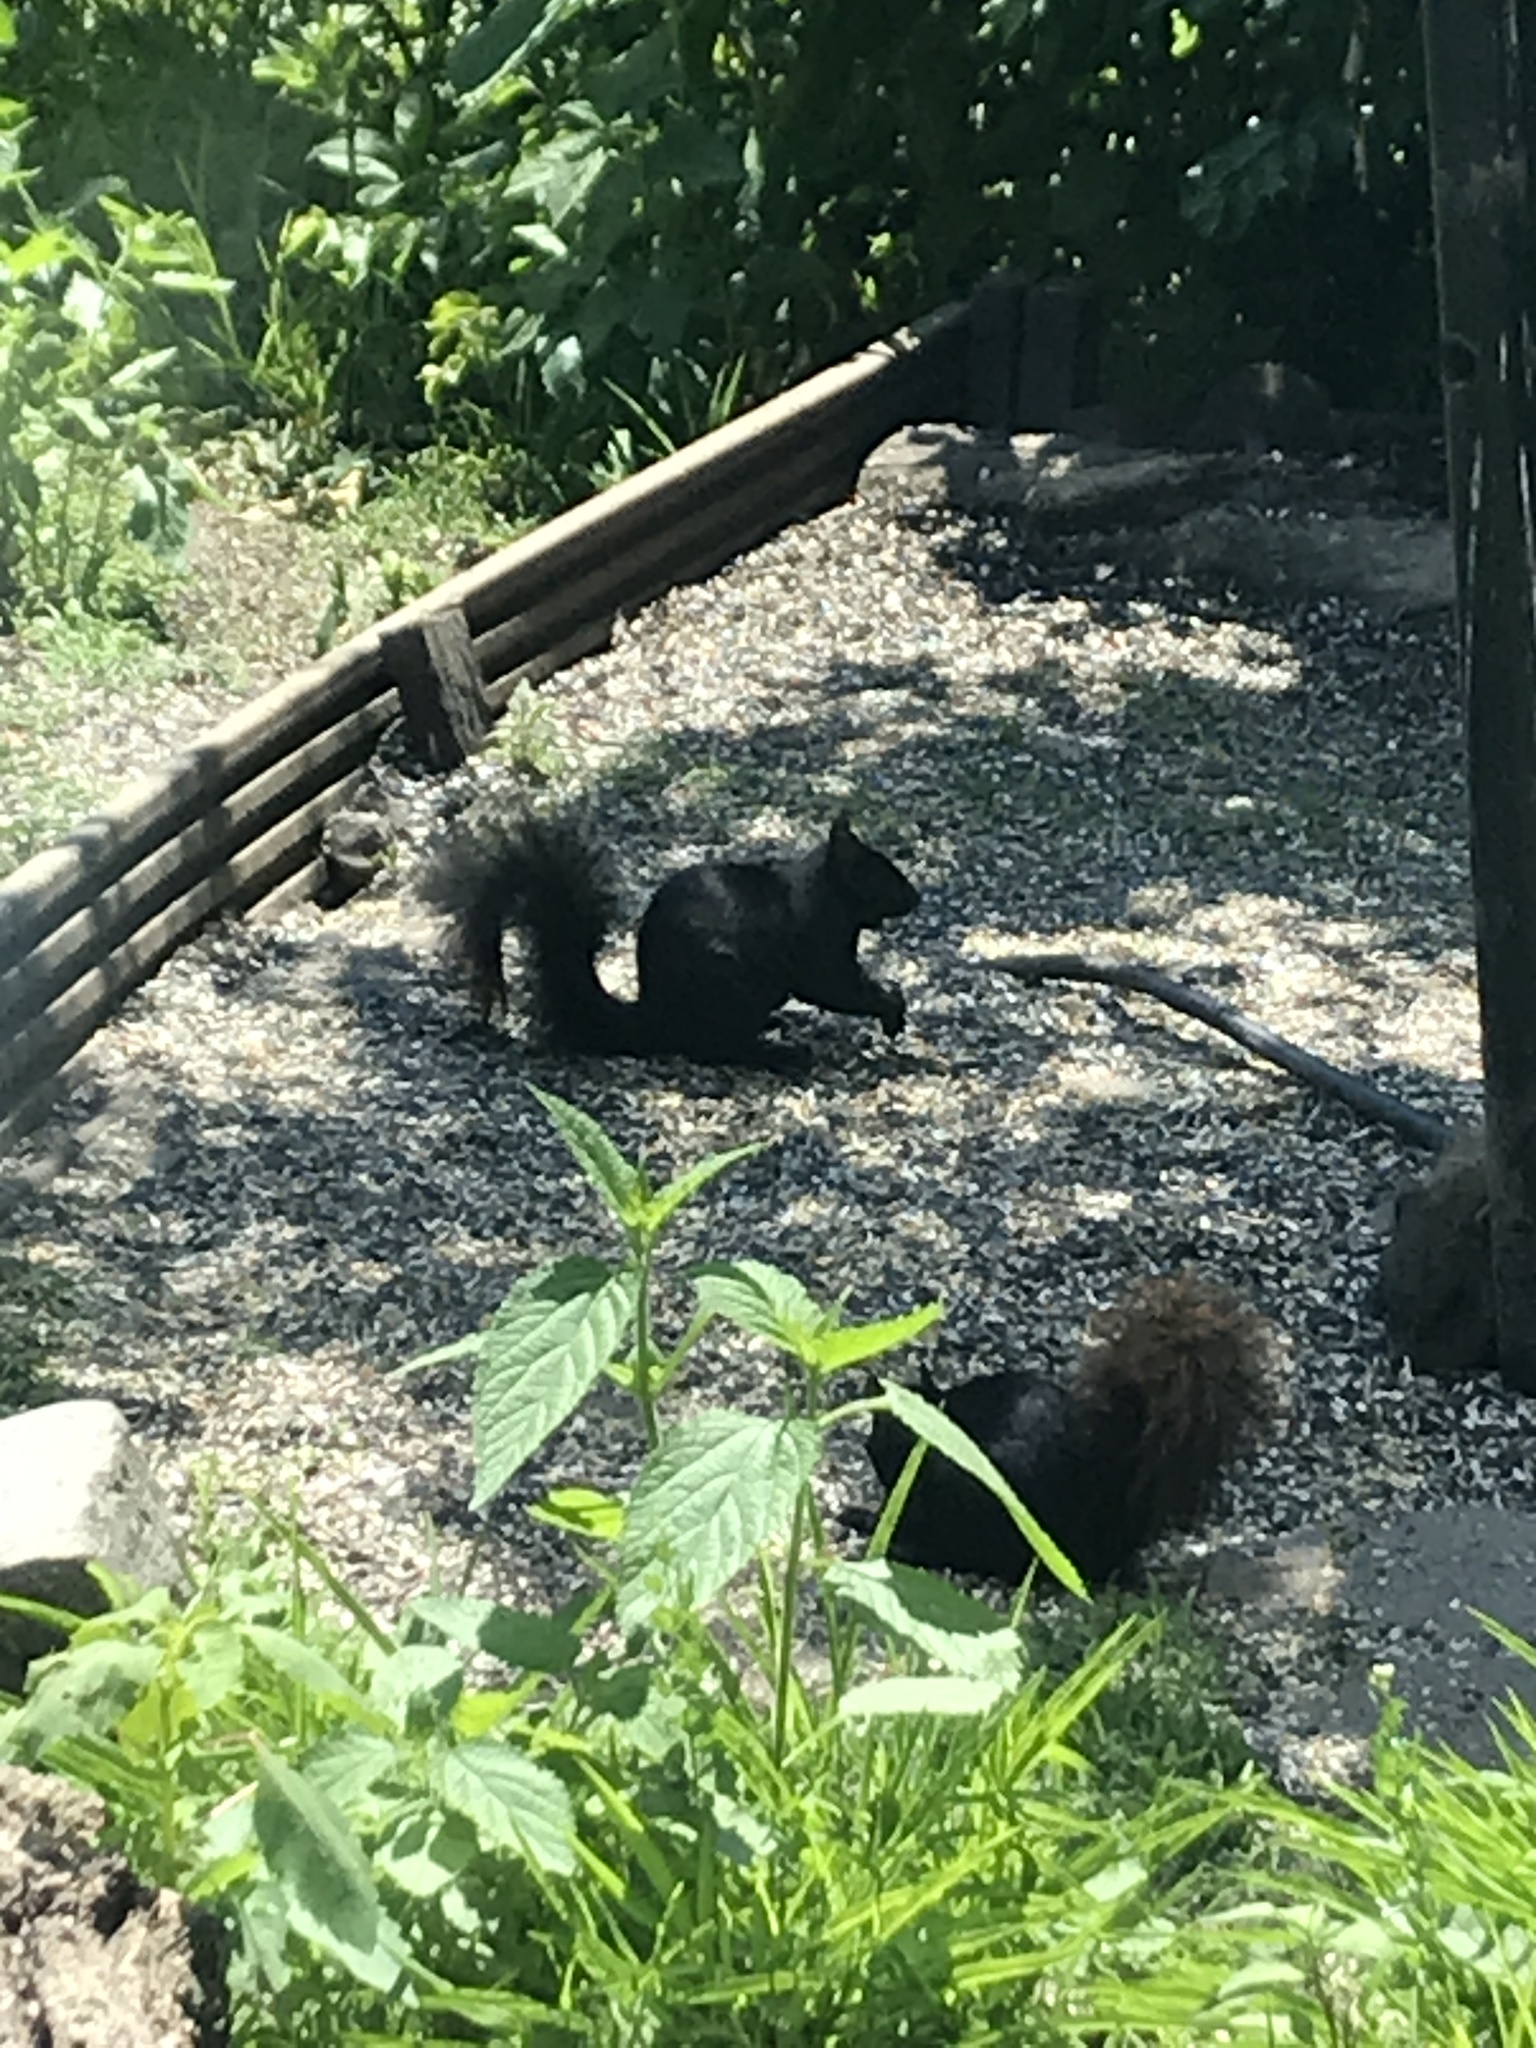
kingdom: Animalia
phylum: Chordata
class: Mammalia
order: Rodentia
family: Sciuridae
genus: Sciurus
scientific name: Sciurus carolinensis
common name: Eastern gray squirrel
